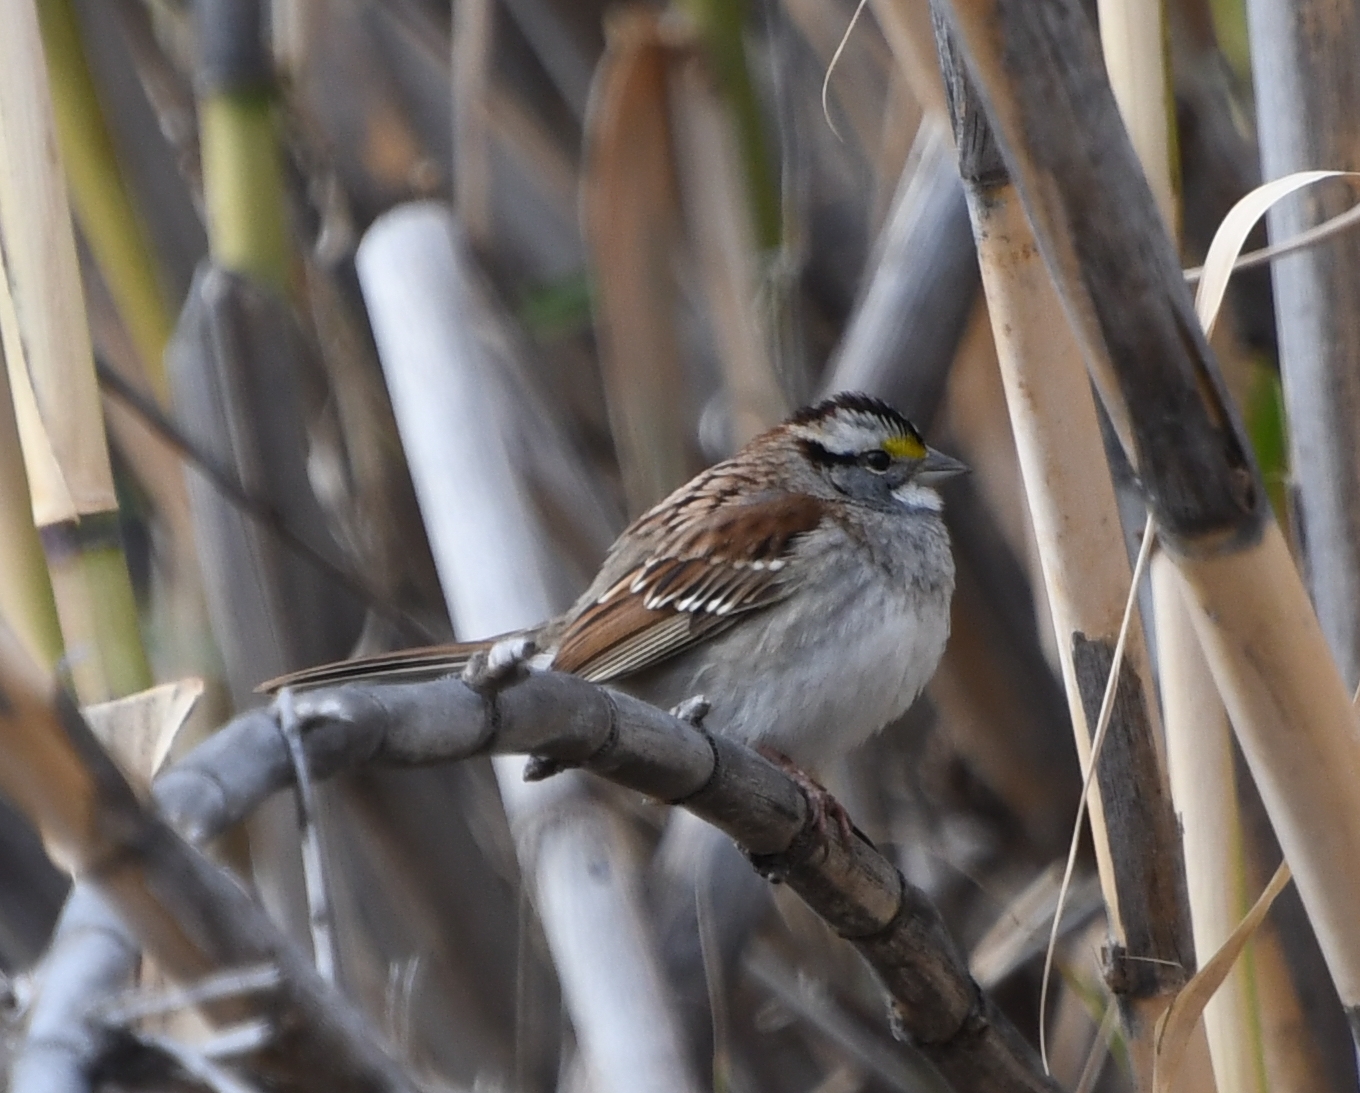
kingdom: Animalia
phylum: Chordata
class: Aves
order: Passeriformes
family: Passerellidae
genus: Zonotrichia
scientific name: Zonotrichia albicollis
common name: White-throated sparrow
